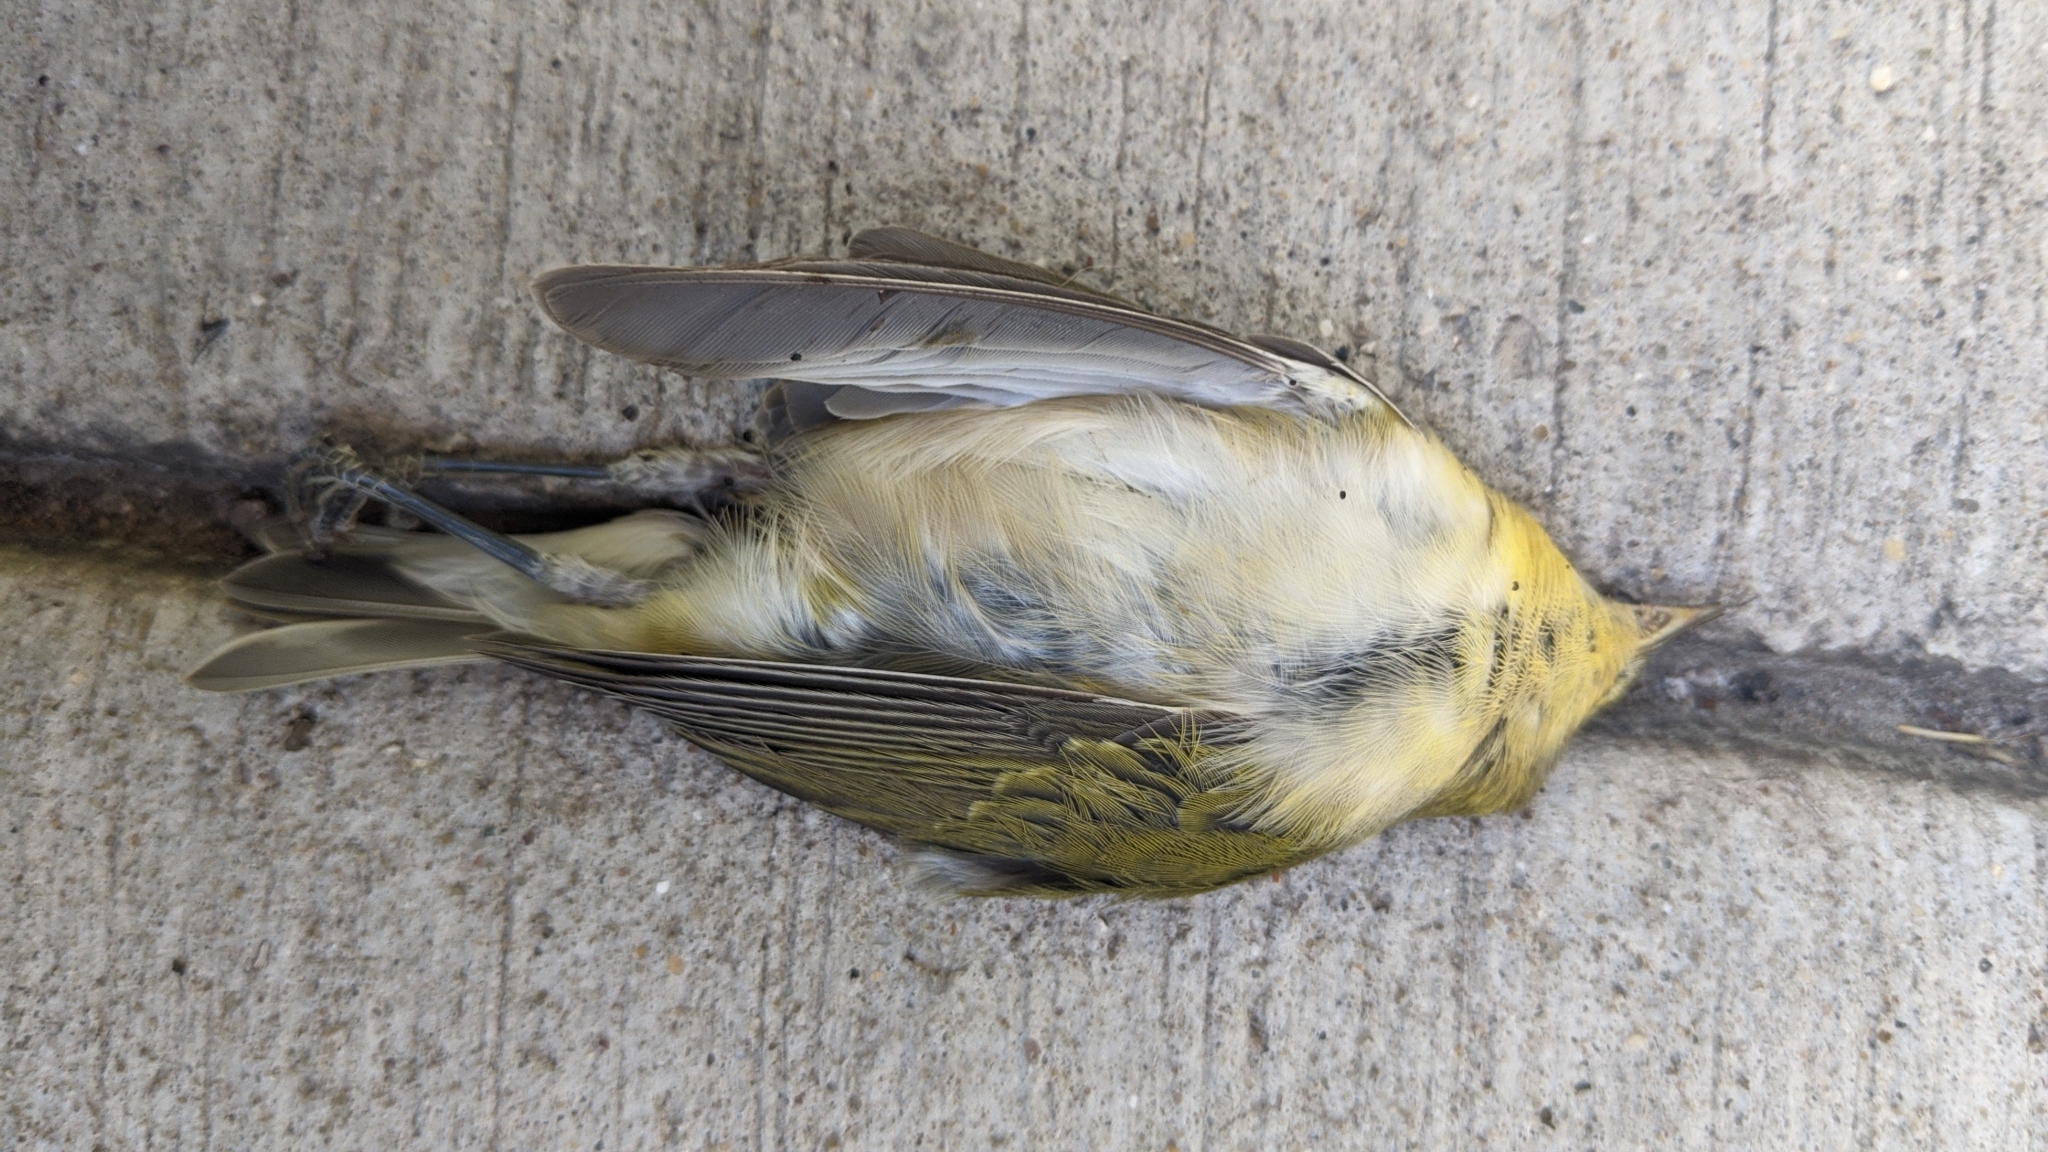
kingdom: Animalia
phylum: Chordata
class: Aves
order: Passeriformes
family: Parulidae
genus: Leiothlypis
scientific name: Leiothlypis peregrina
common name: Tennessee warbler
